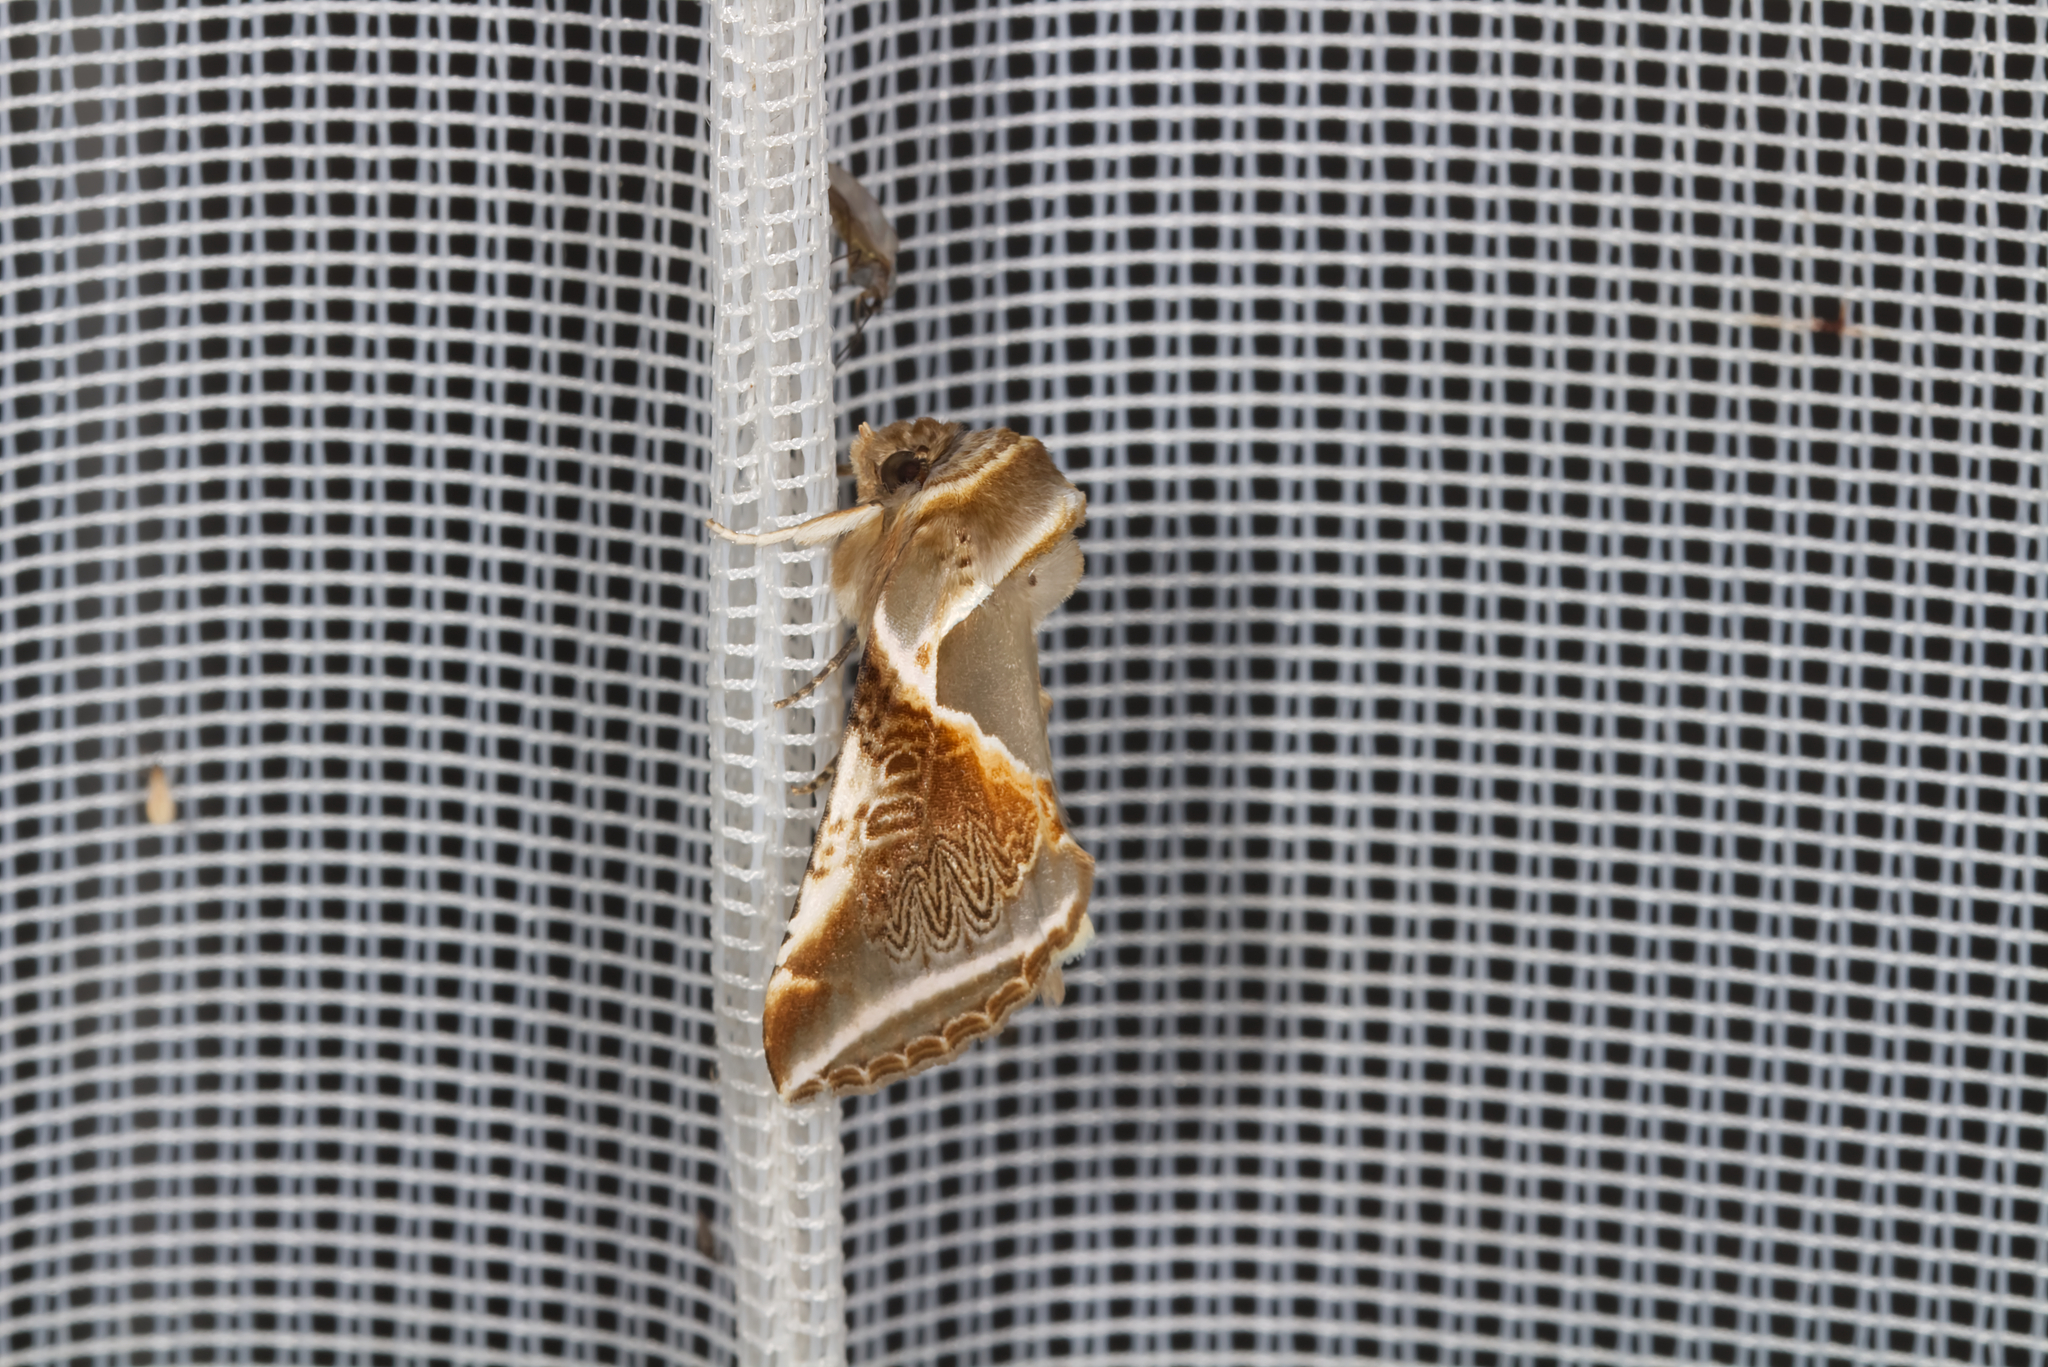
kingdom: Animalia
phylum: Arthropoda
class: Insecta
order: Lepidoptera
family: Drepanidae
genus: Habrosyne
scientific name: Habrosyne pyritoides
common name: Buff arches
